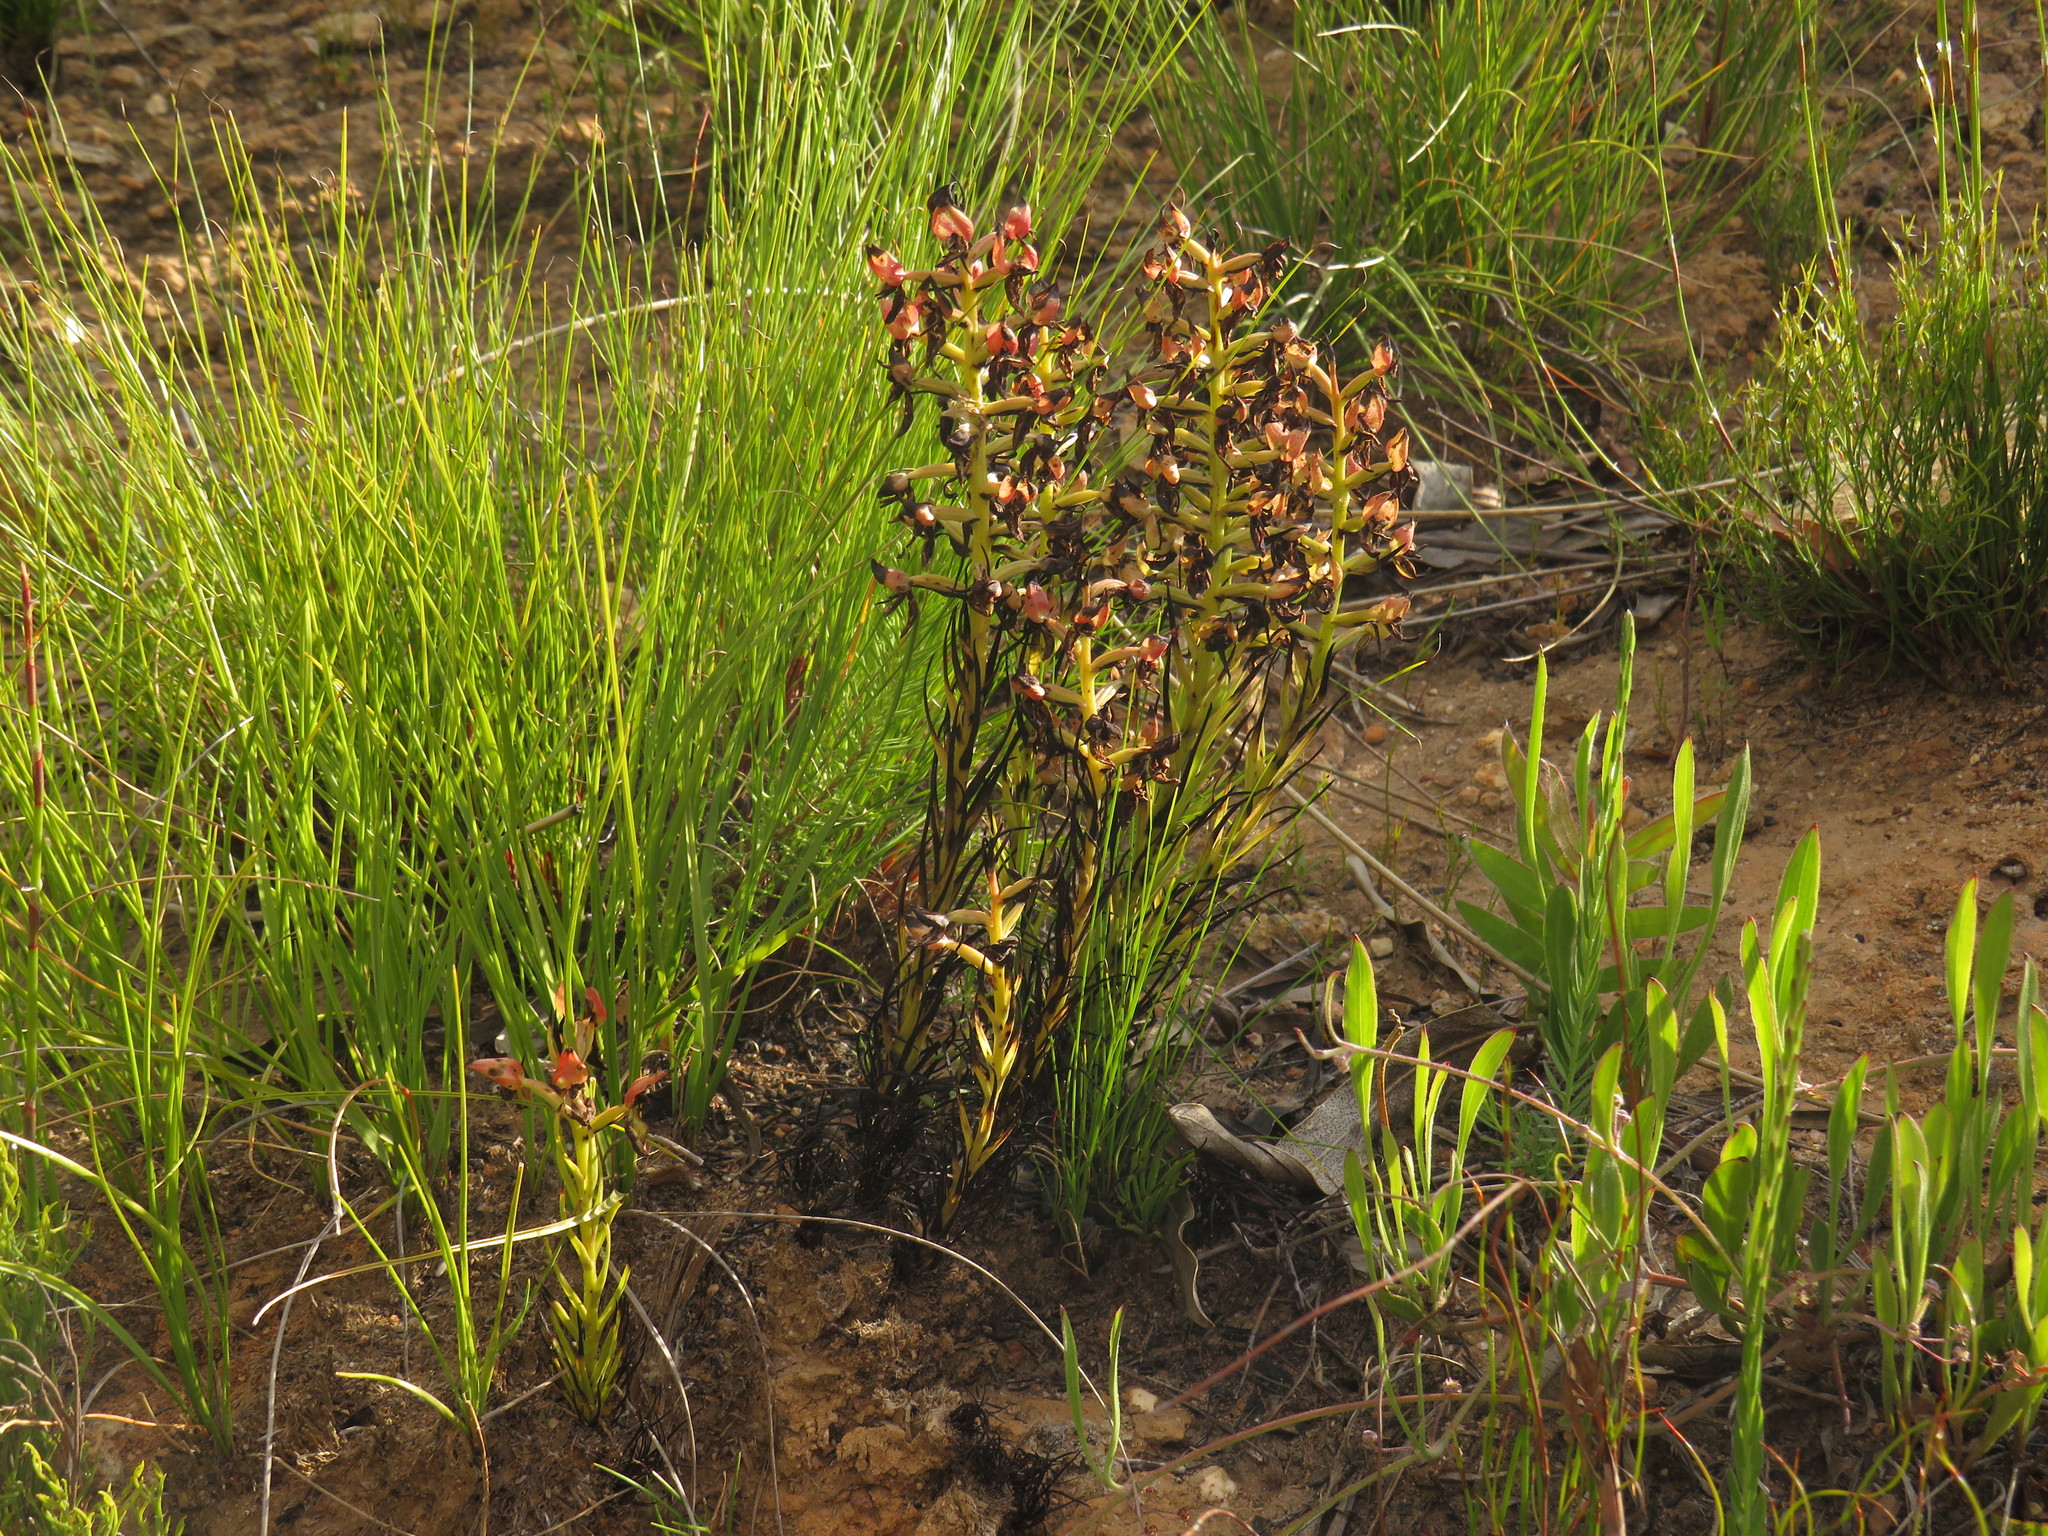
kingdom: Plantae
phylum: Tracheophyta
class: Liliopsida
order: Asparagales
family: Orchidaceae
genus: Ceratandra
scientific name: Ceratandra atrata
